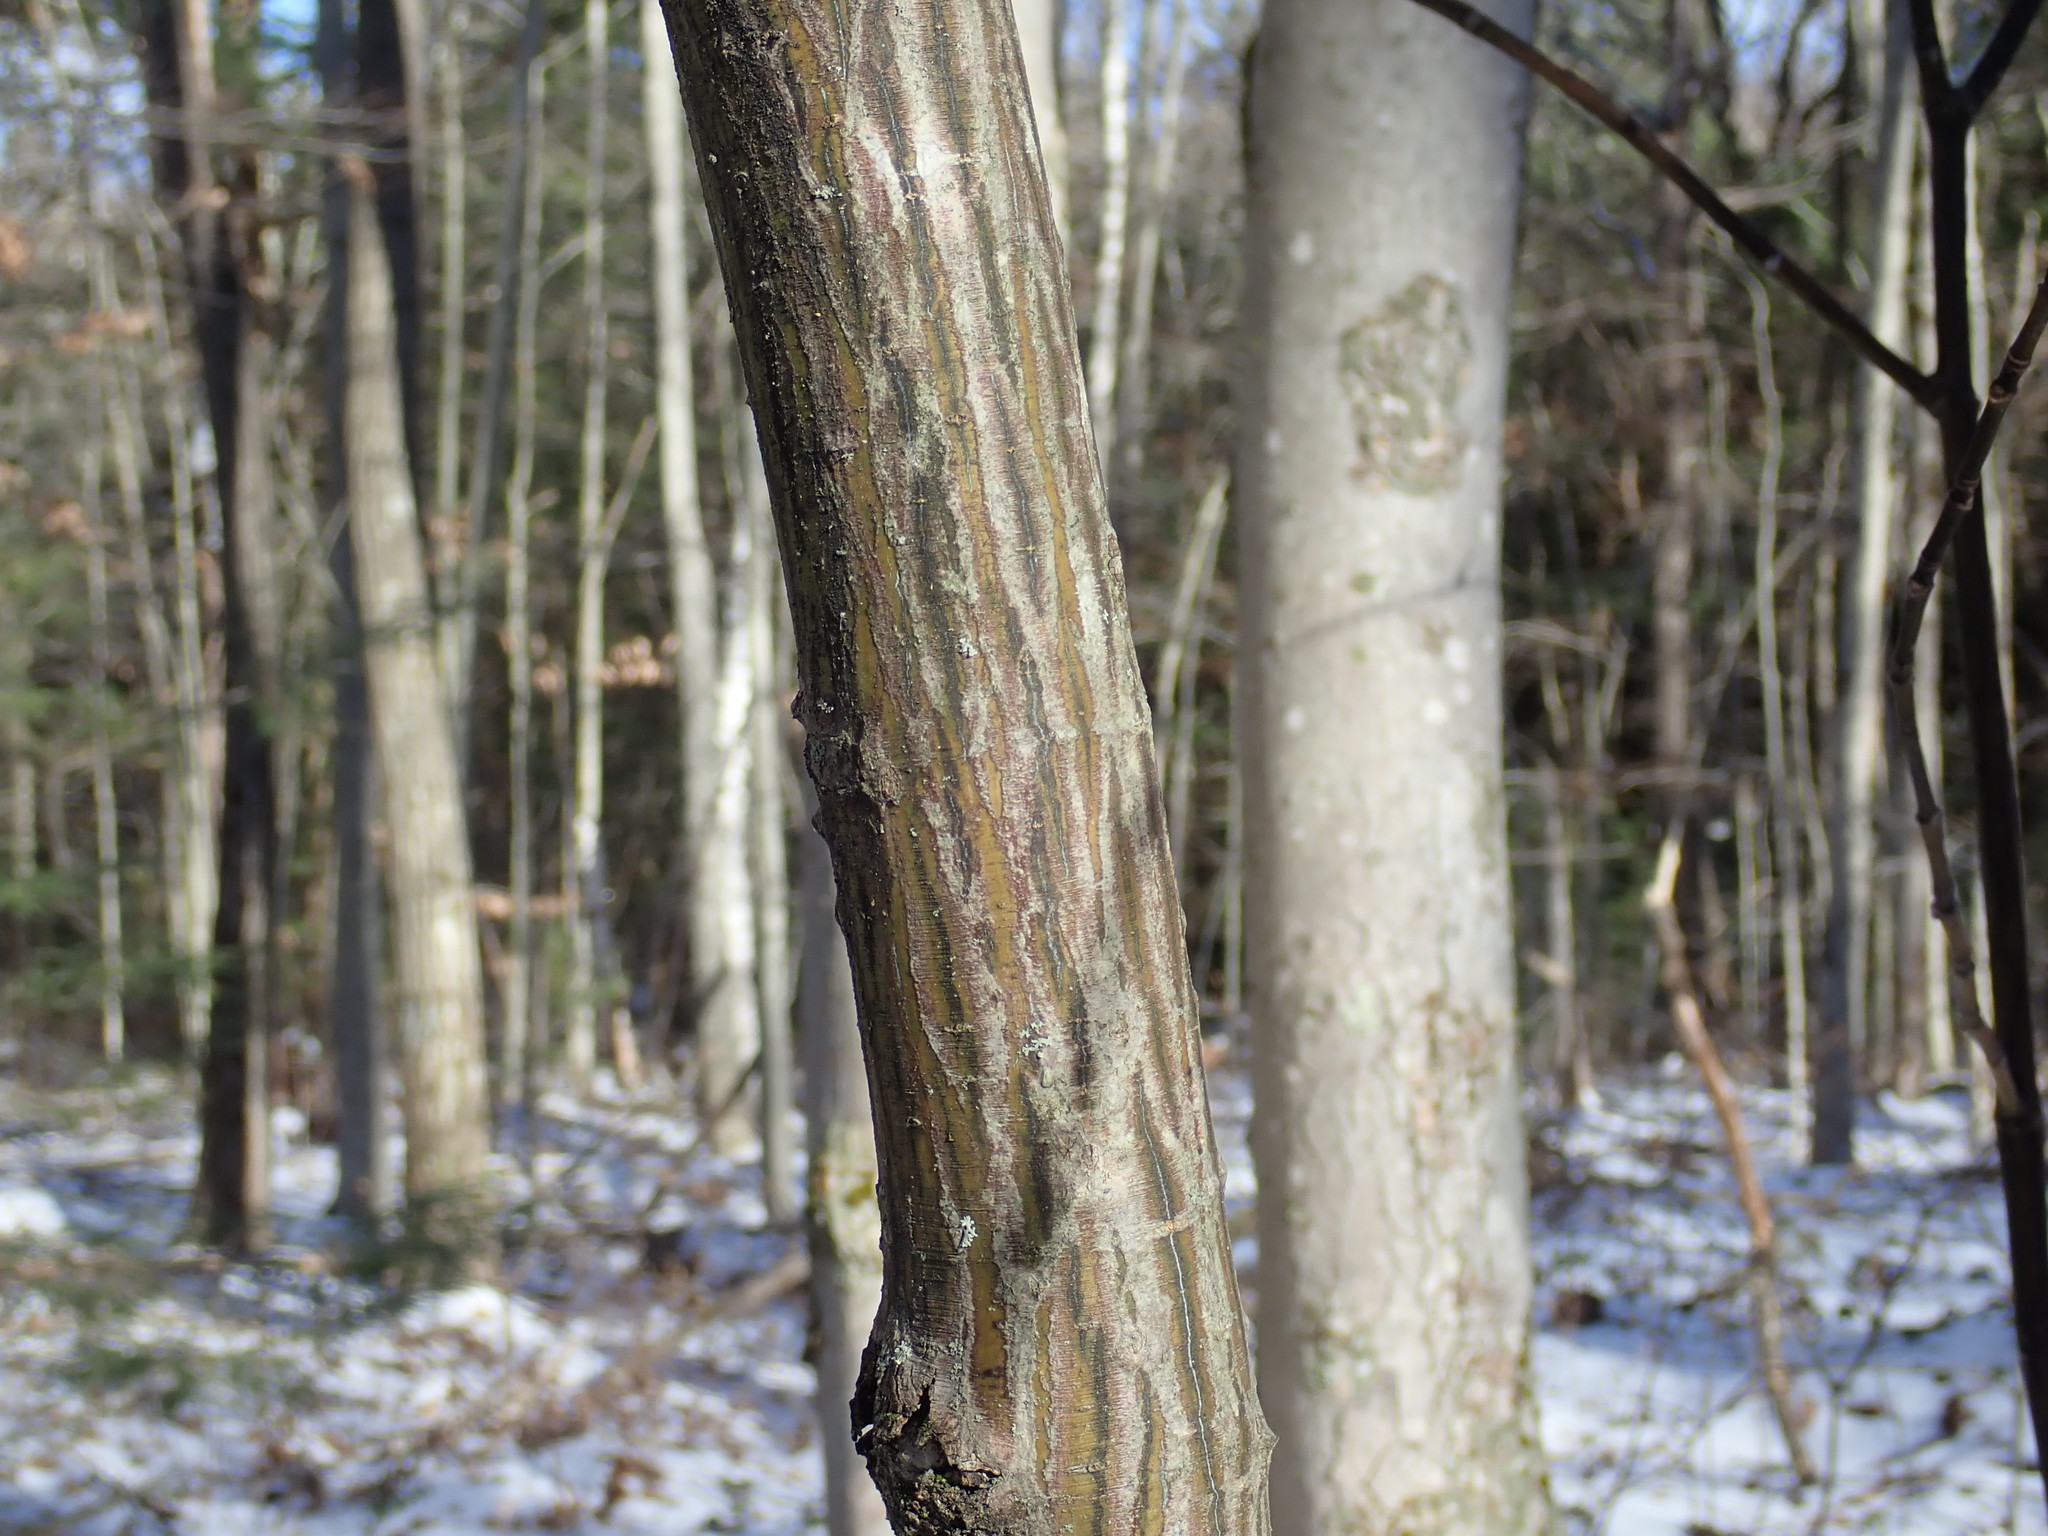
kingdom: Plantae
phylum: Tracheophyta
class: Magnoliopsida
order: Sapindales
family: Sapindaceae
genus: Acer
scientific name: Acer pensylvanicum
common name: Moosewood
